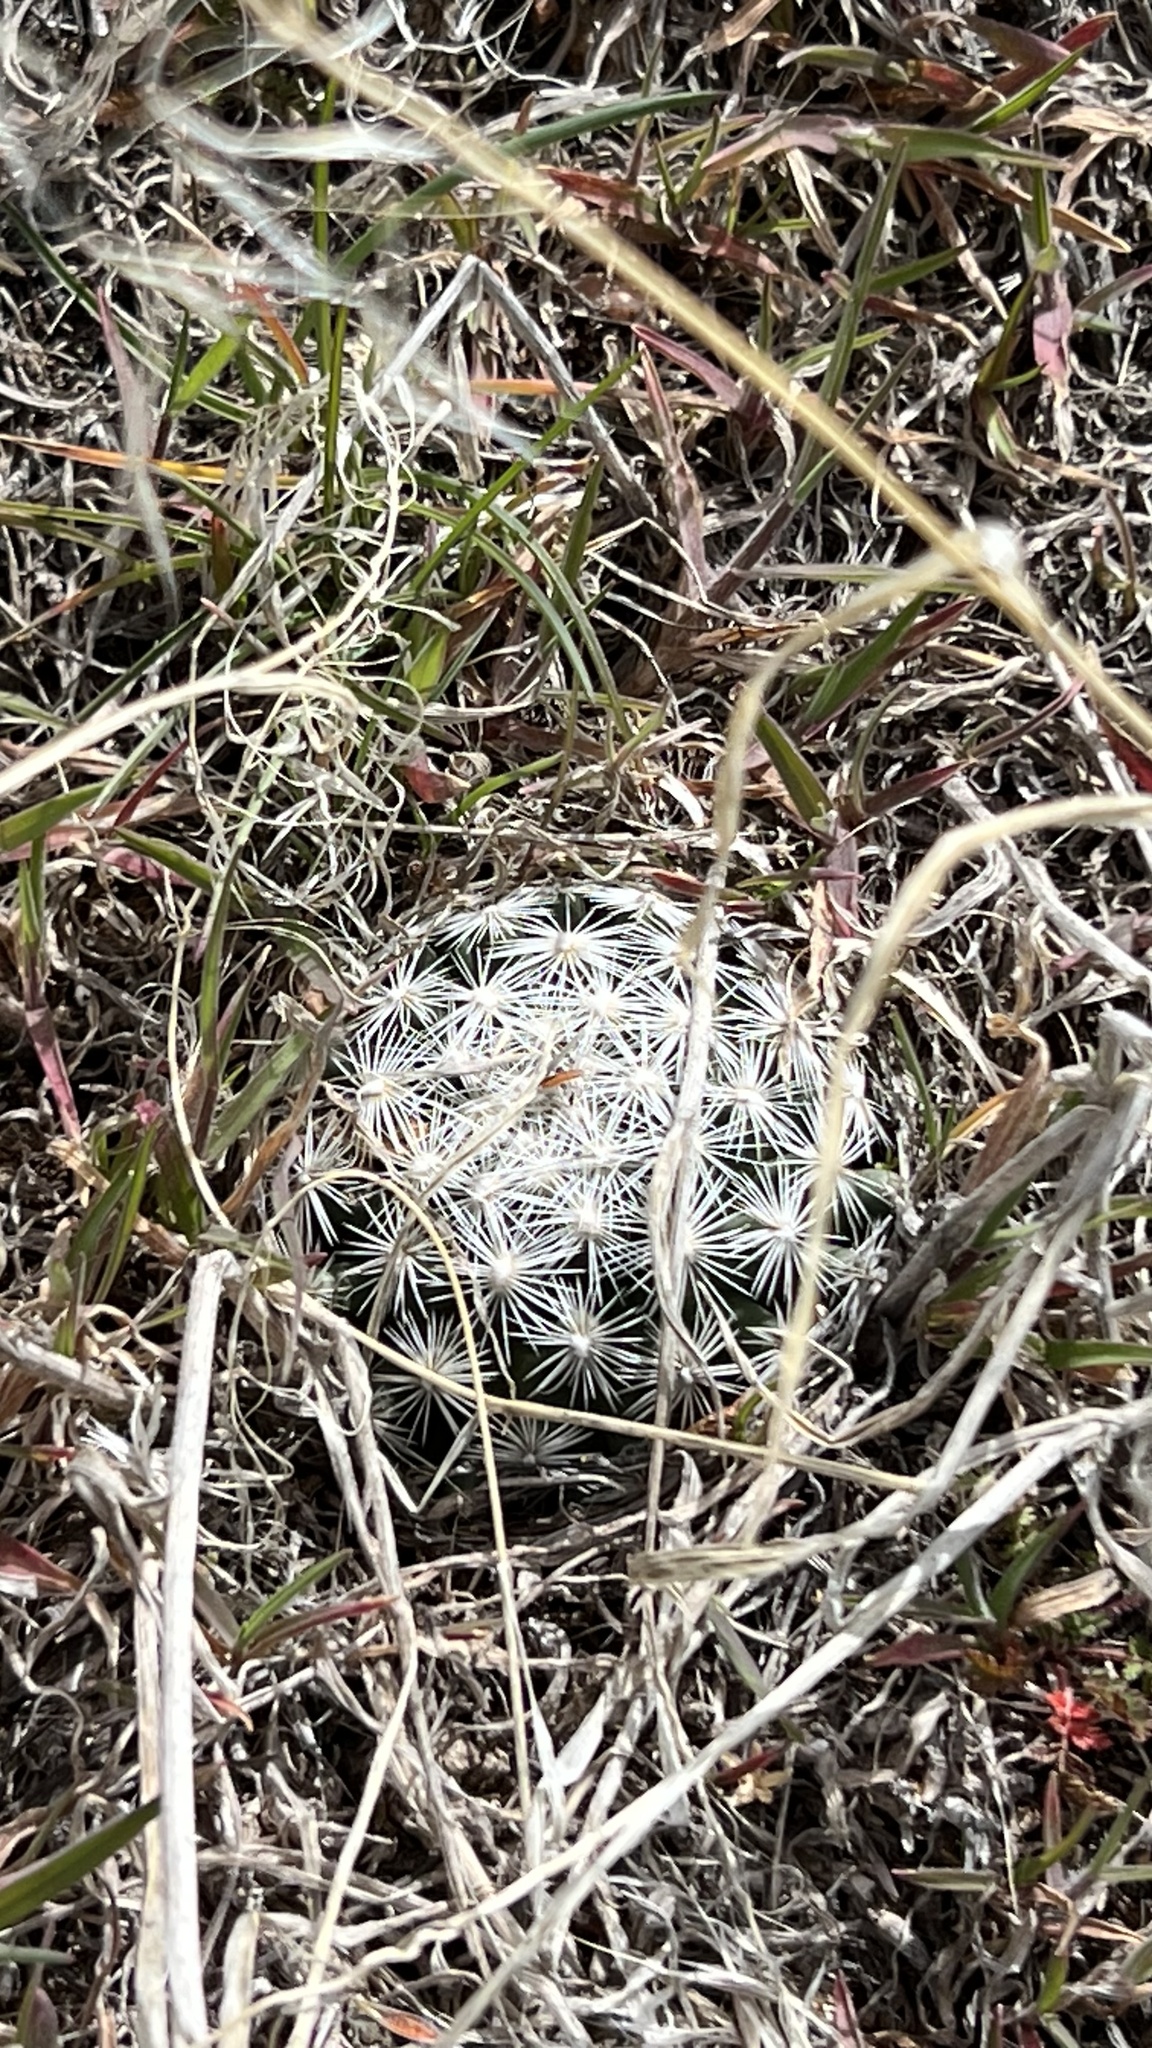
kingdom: Plantae
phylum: Tracheophyta
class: Magnoliopsida
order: Caryophyllales
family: Cactaceae
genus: Pelecyphora
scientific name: Pelecyphora vivipara
